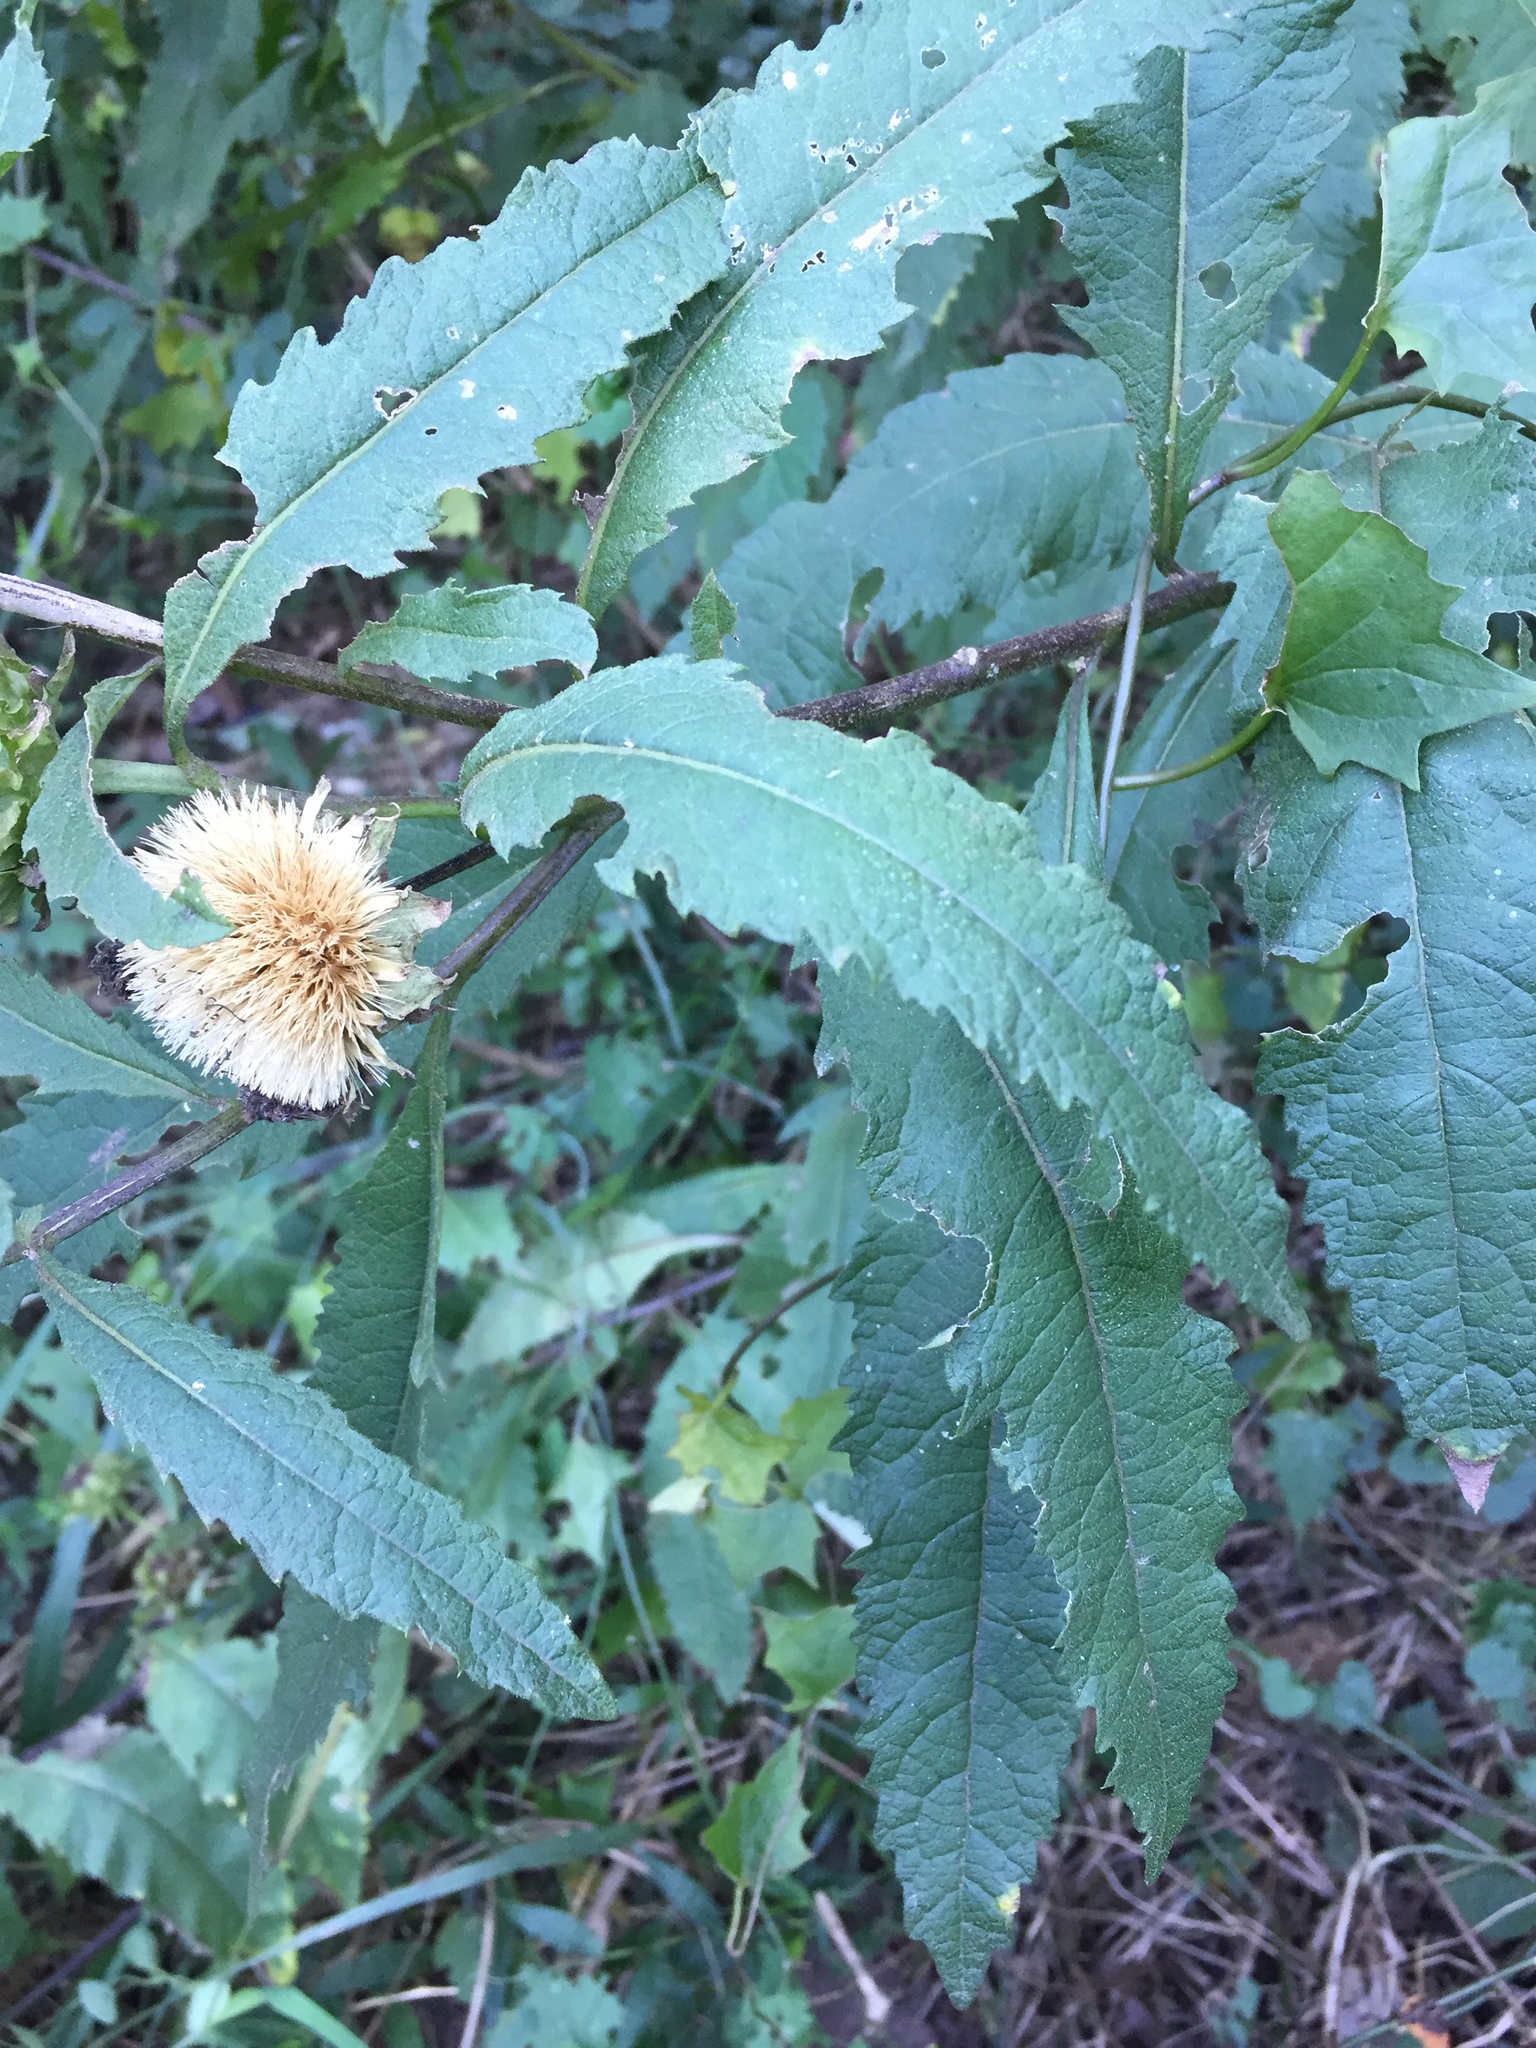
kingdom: Plantae
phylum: Tracheophyta
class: Magnoliopsida
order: Asterales
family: Asteraceae
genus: Baccharoides
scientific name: Baccharoides adoensis
